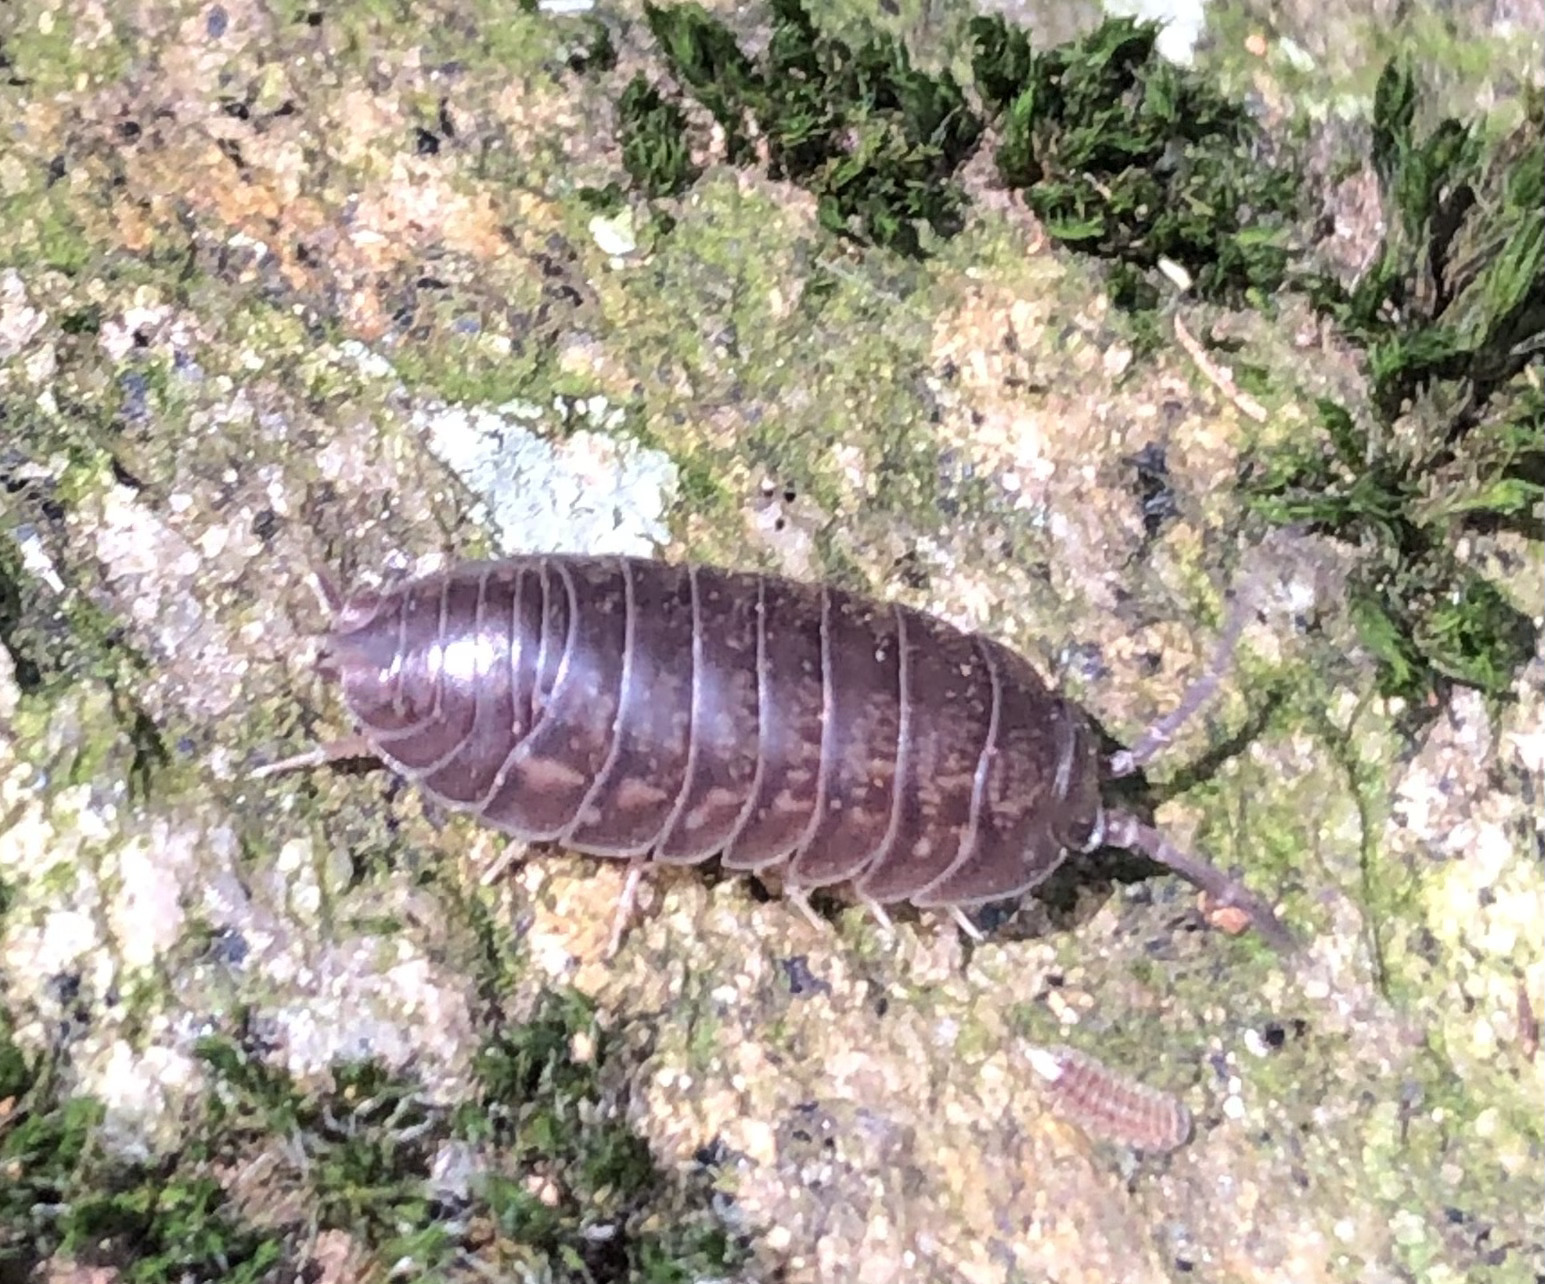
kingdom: Animalia
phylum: Arthropoda
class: Malacostraca
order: Isopoda
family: Cylisticidae
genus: Cylisticus
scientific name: Cylisticus convexus
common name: Curly woodlouse
